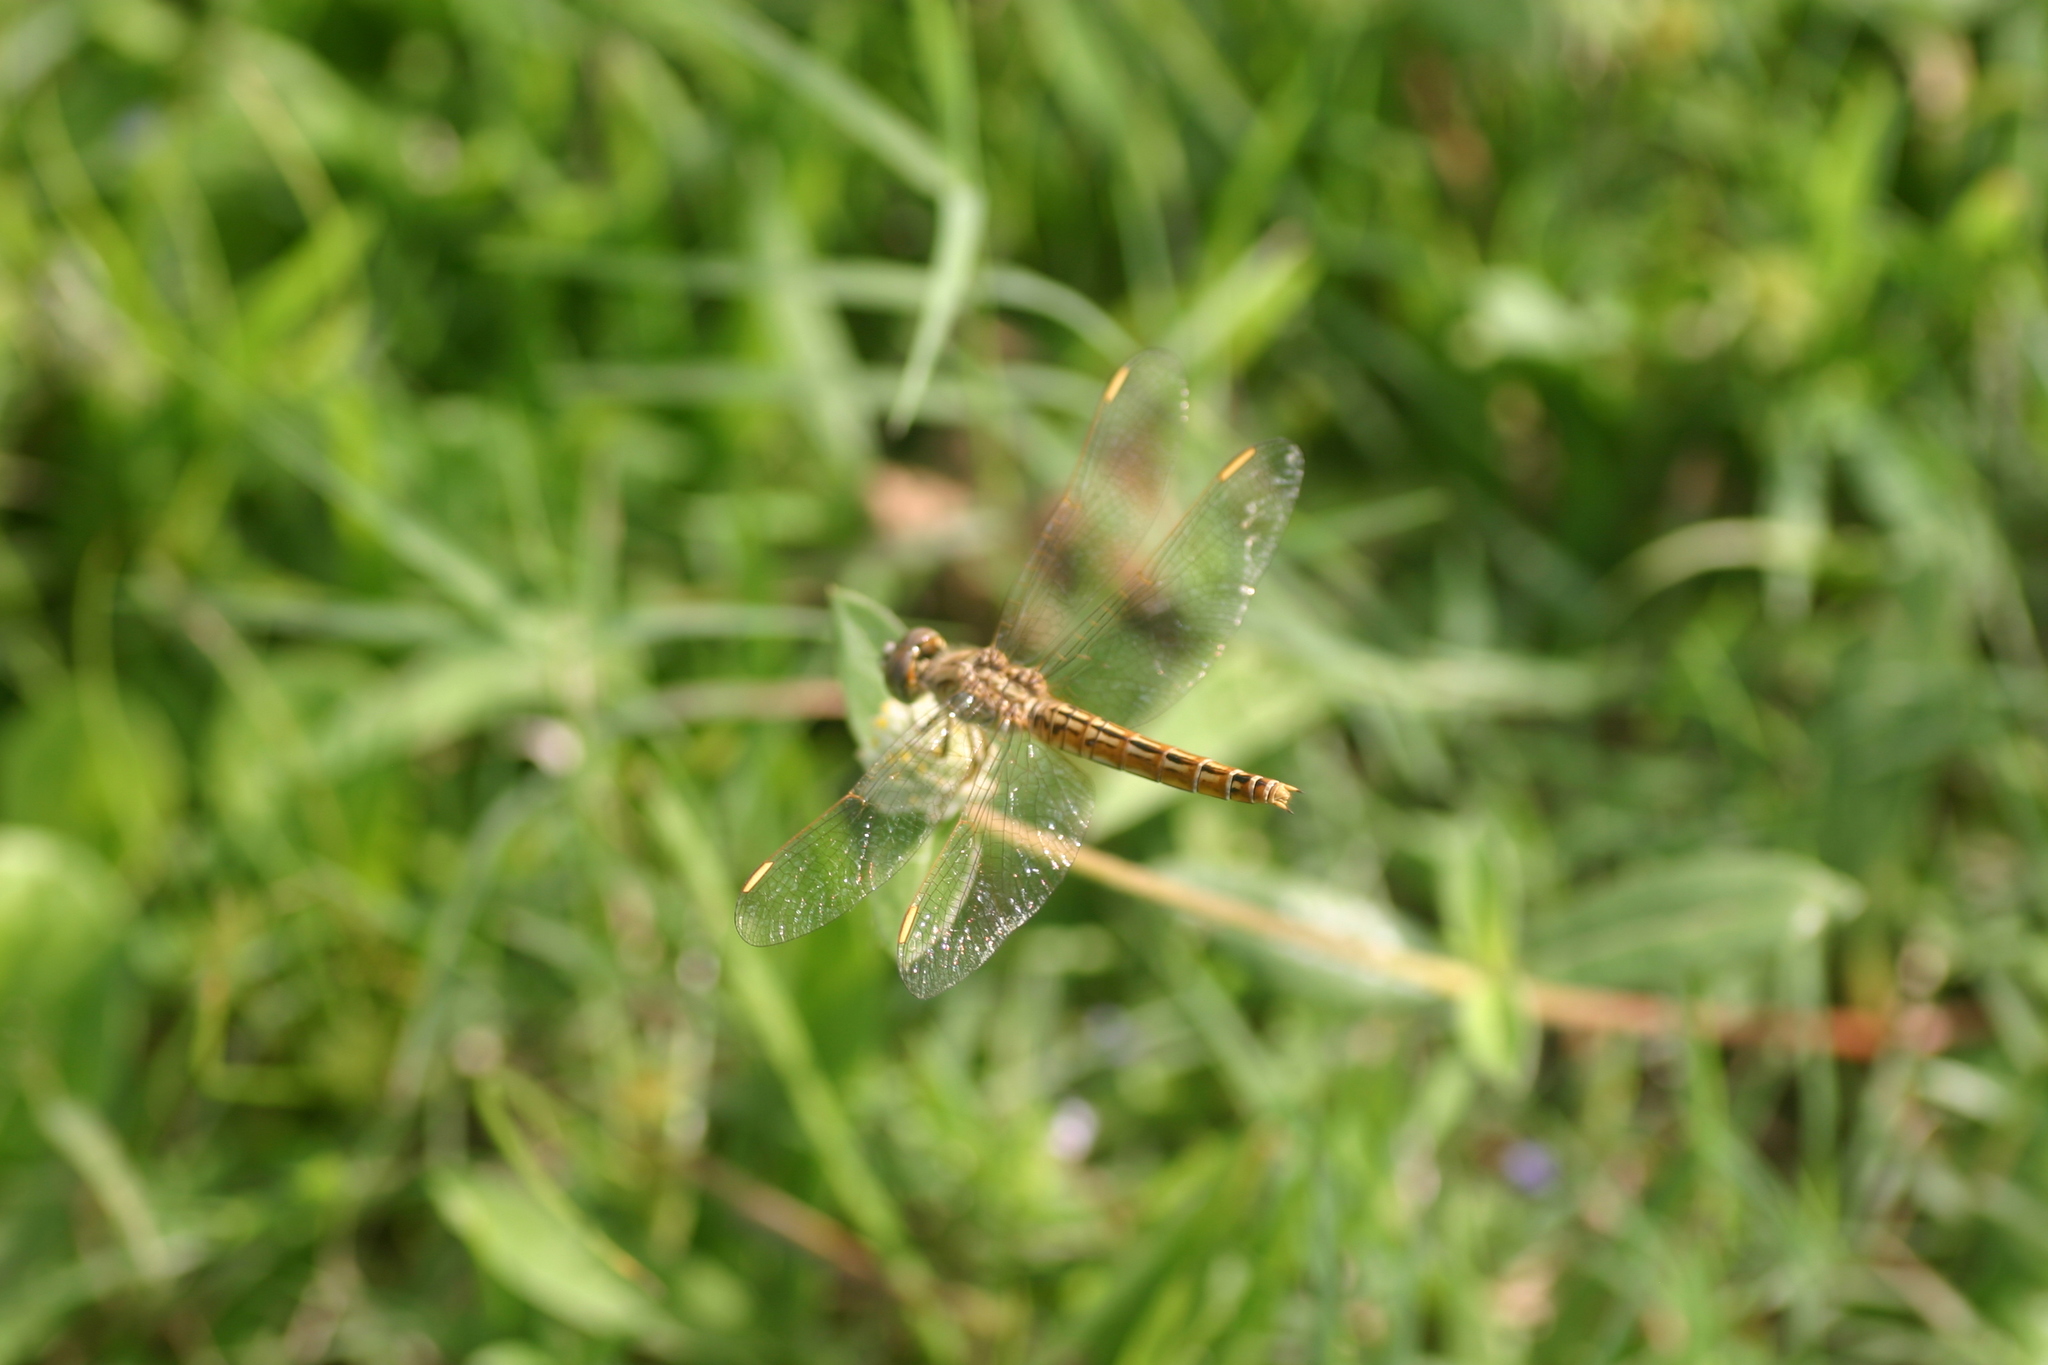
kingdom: Animalia
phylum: Arthropoda
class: Insecta
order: Odonata
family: Libellulidae
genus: Brachythemis
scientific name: Brachythemis contaminata
